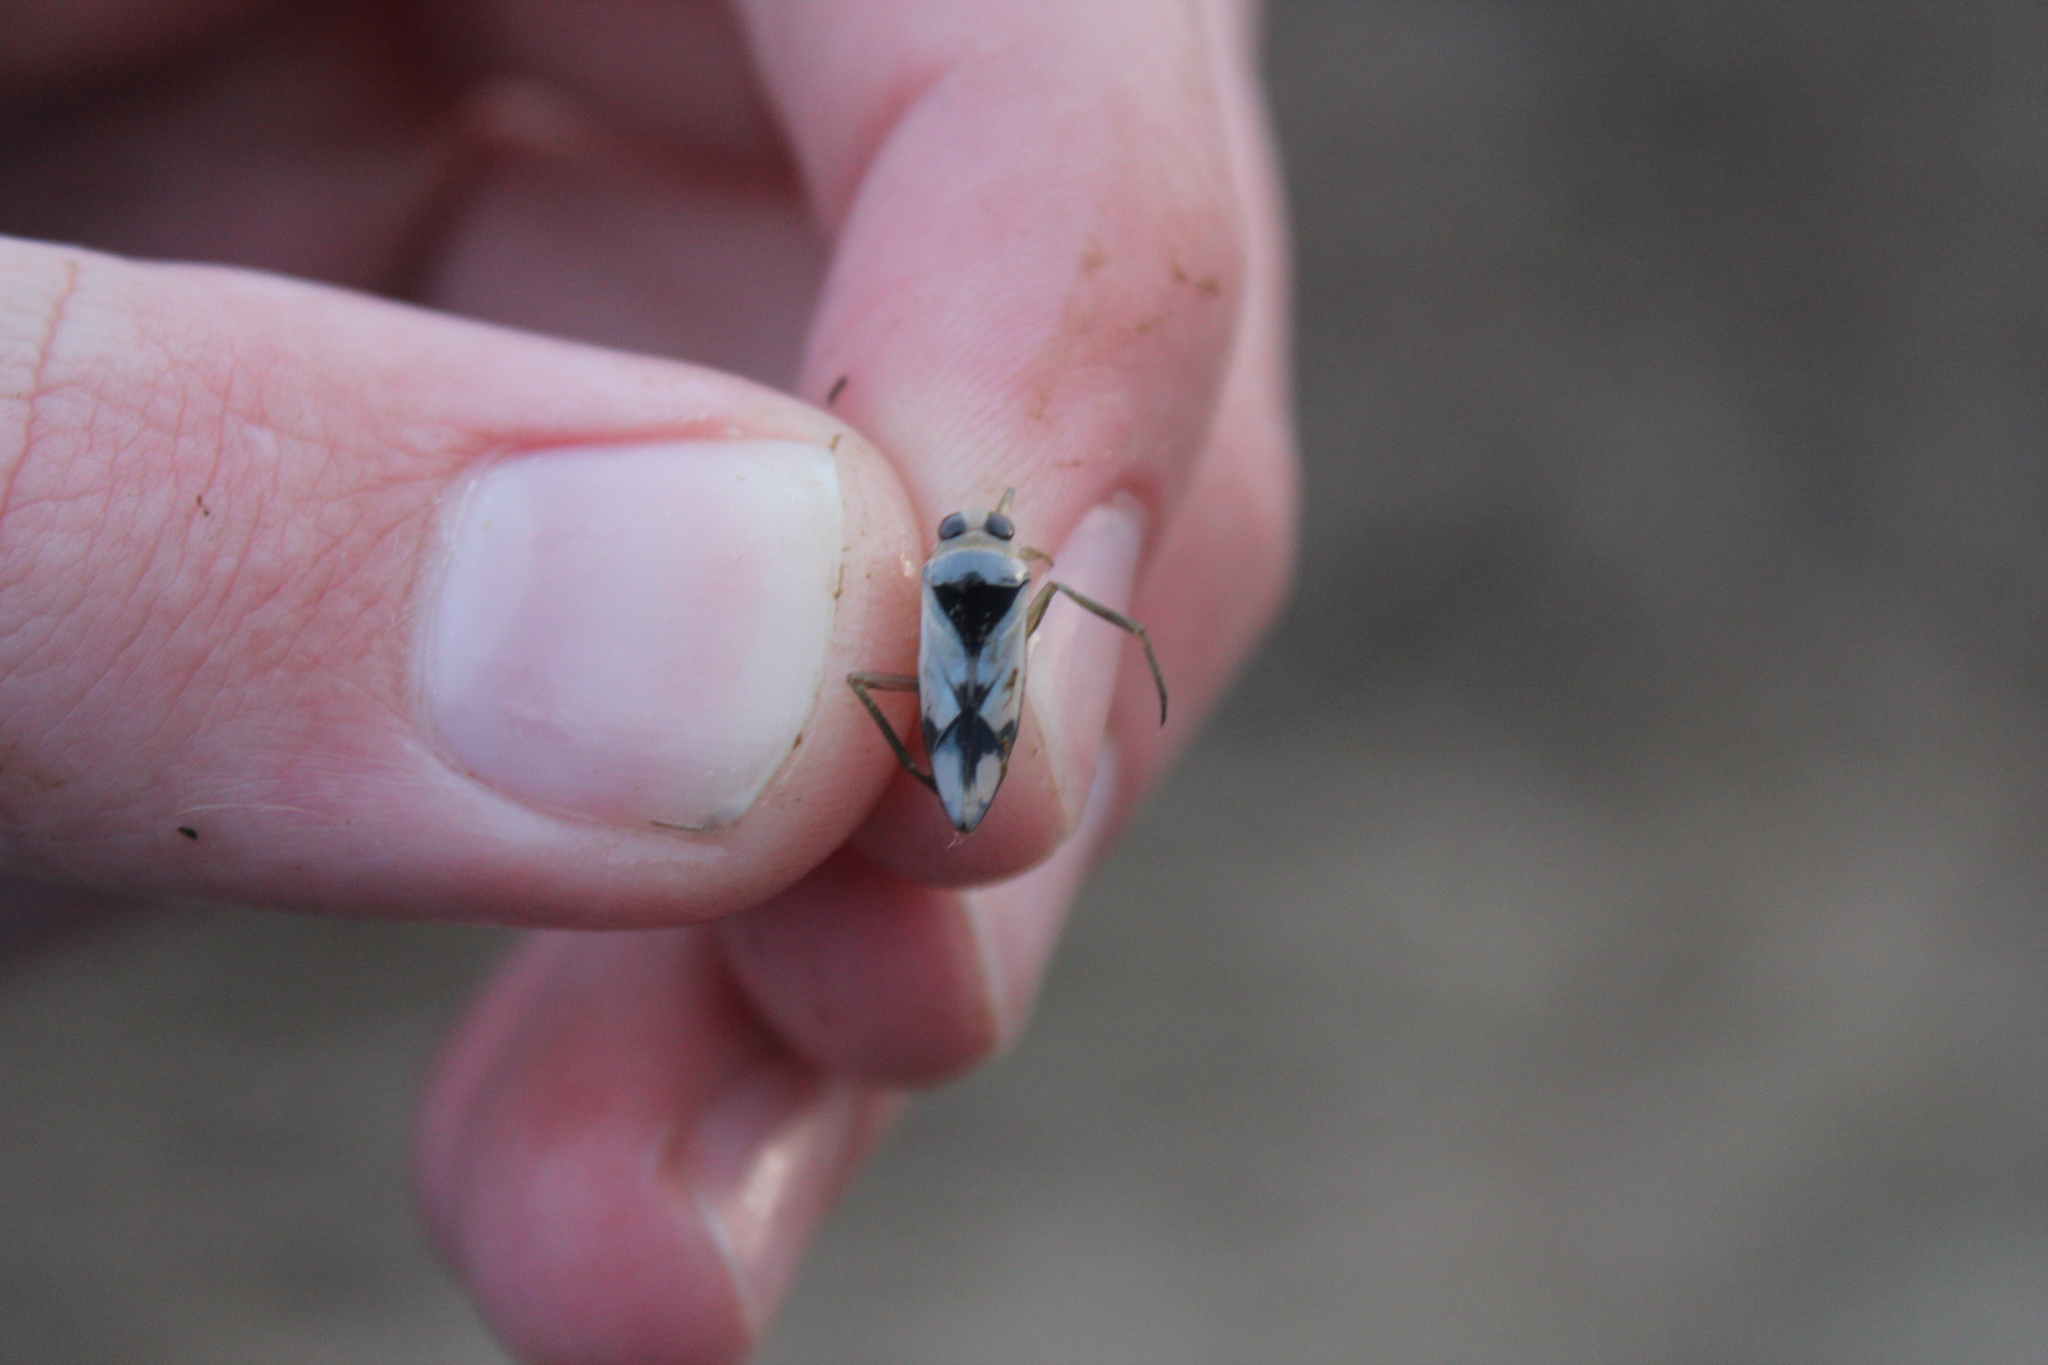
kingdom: Animalia
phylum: Arthropoda
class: Insecta
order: Hemiptera
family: Notonectidae
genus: Notonecta
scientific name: Notonecta undulata
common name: Grousewinged backswimmer
